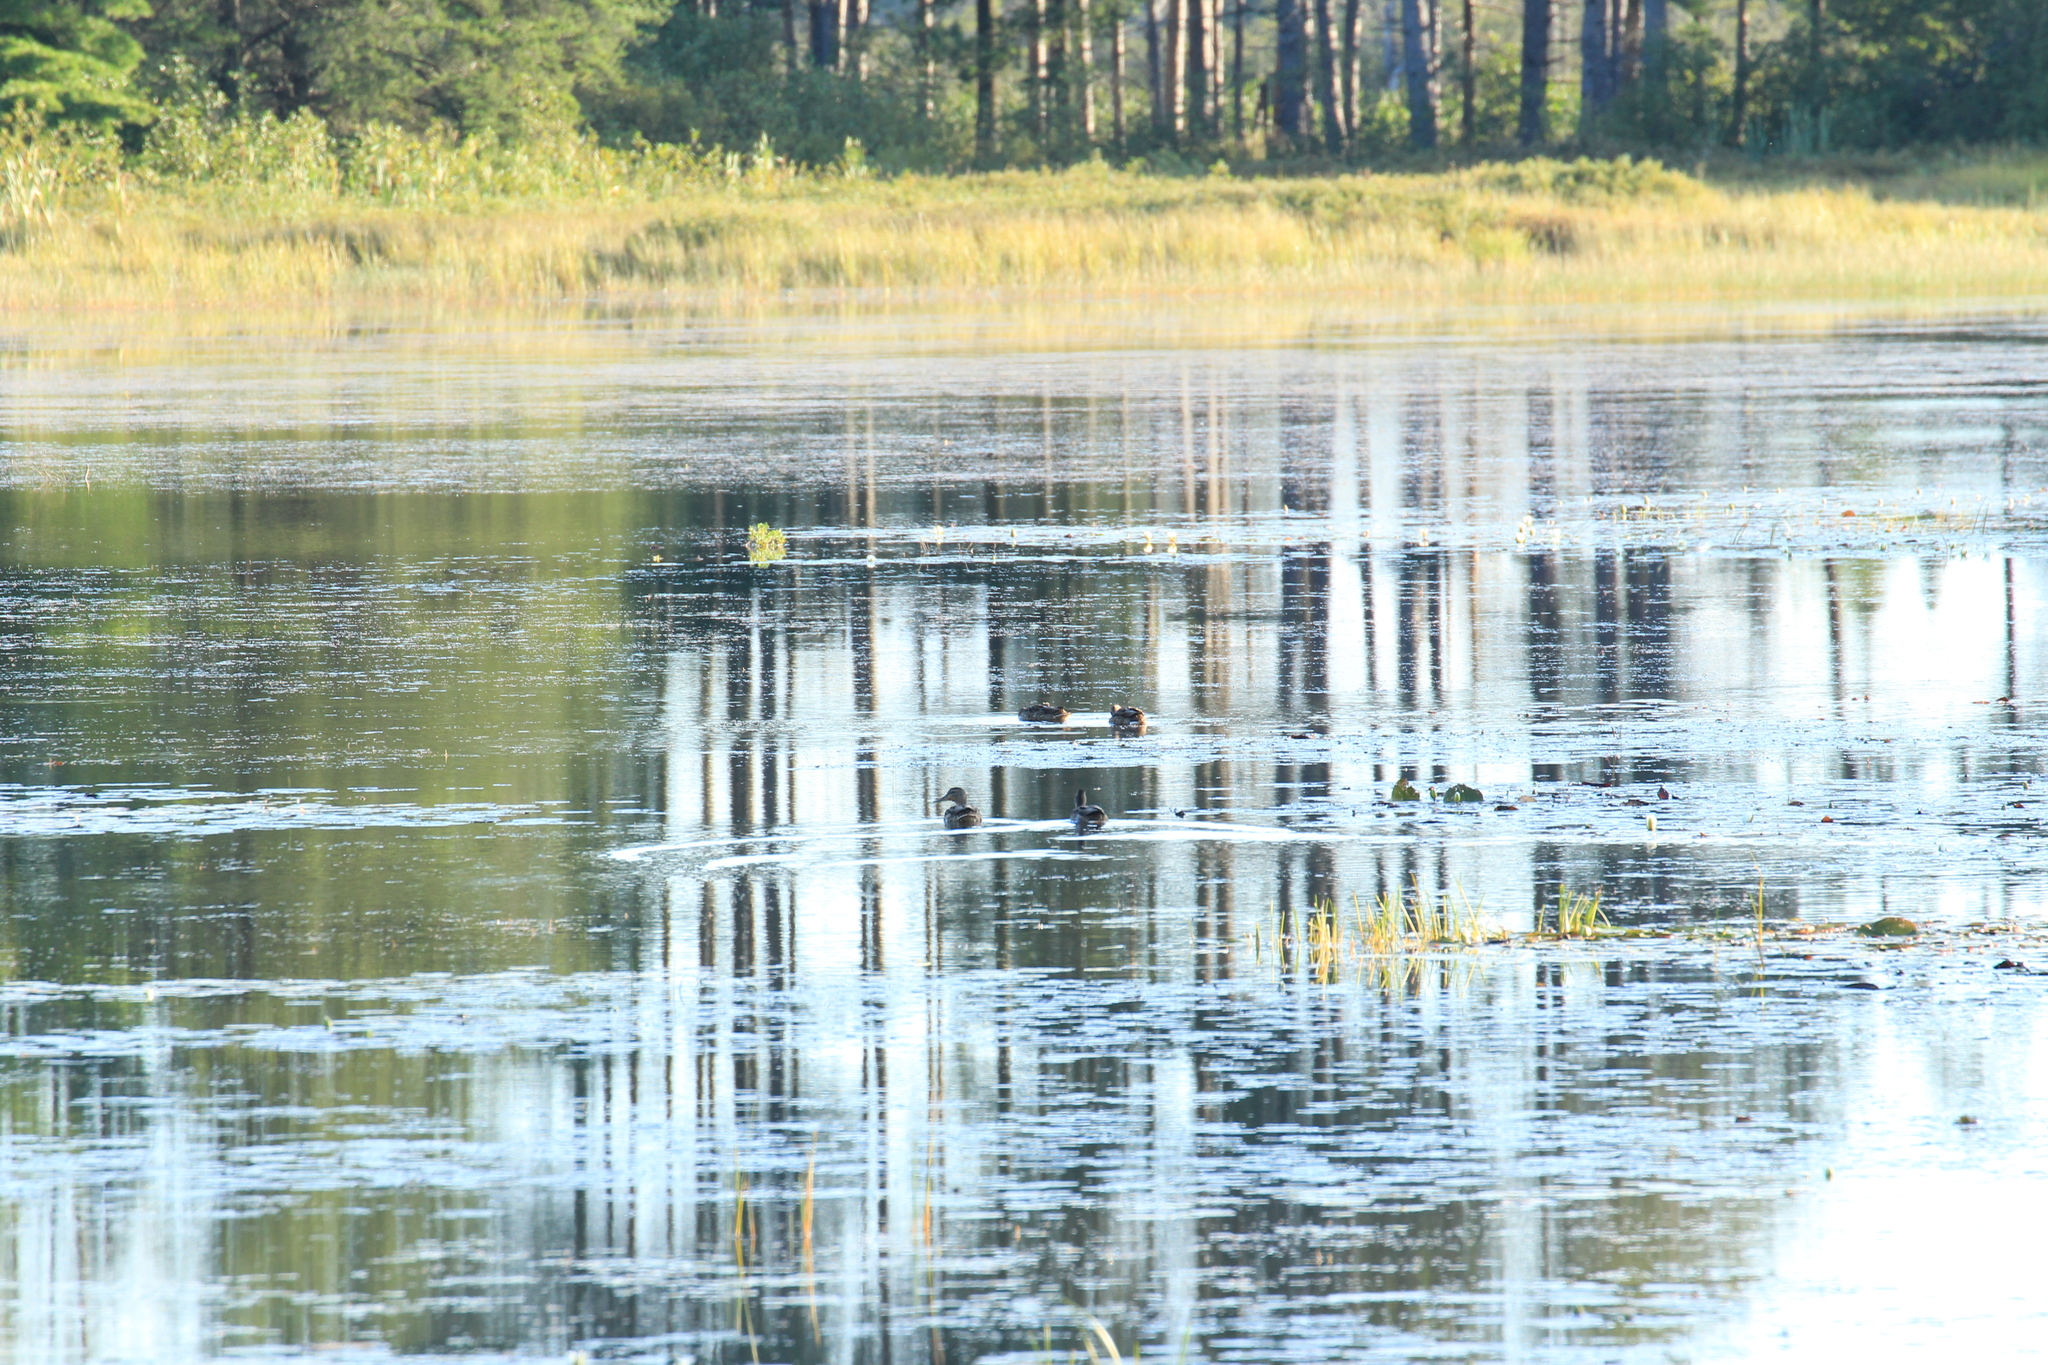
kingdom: Animalia
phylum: Chordata
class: Aves
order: Anseriformes
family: Anatidae
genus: Anas
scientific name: Anas platyrhynchos
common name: Mallard
